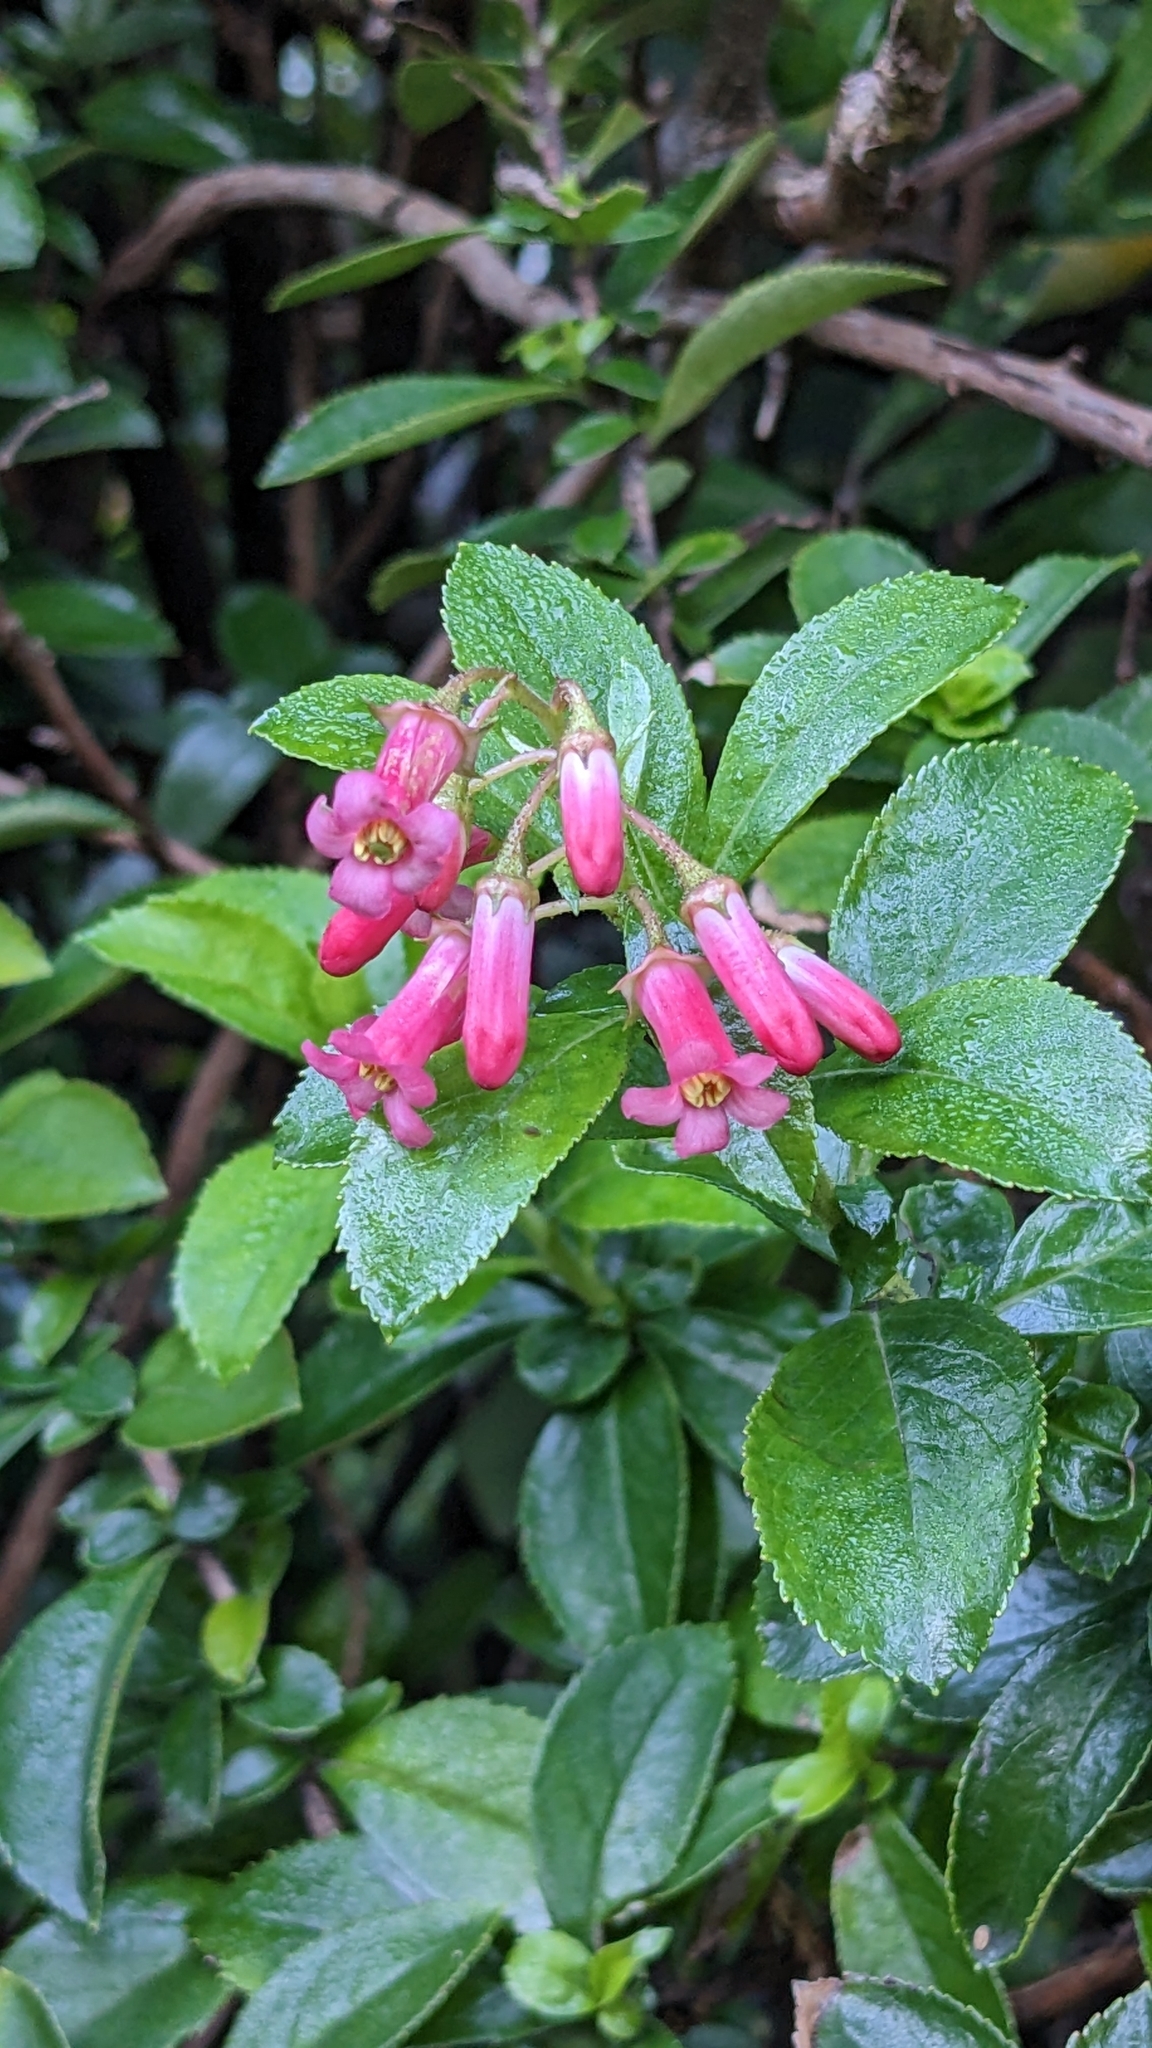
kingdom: Plantae
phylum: Tracheophyta
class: Magnoliopsida
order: Escalloniales
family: Escalloniaceae
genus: Escallonia
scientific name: Escallonia rubra
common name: Redclaws
